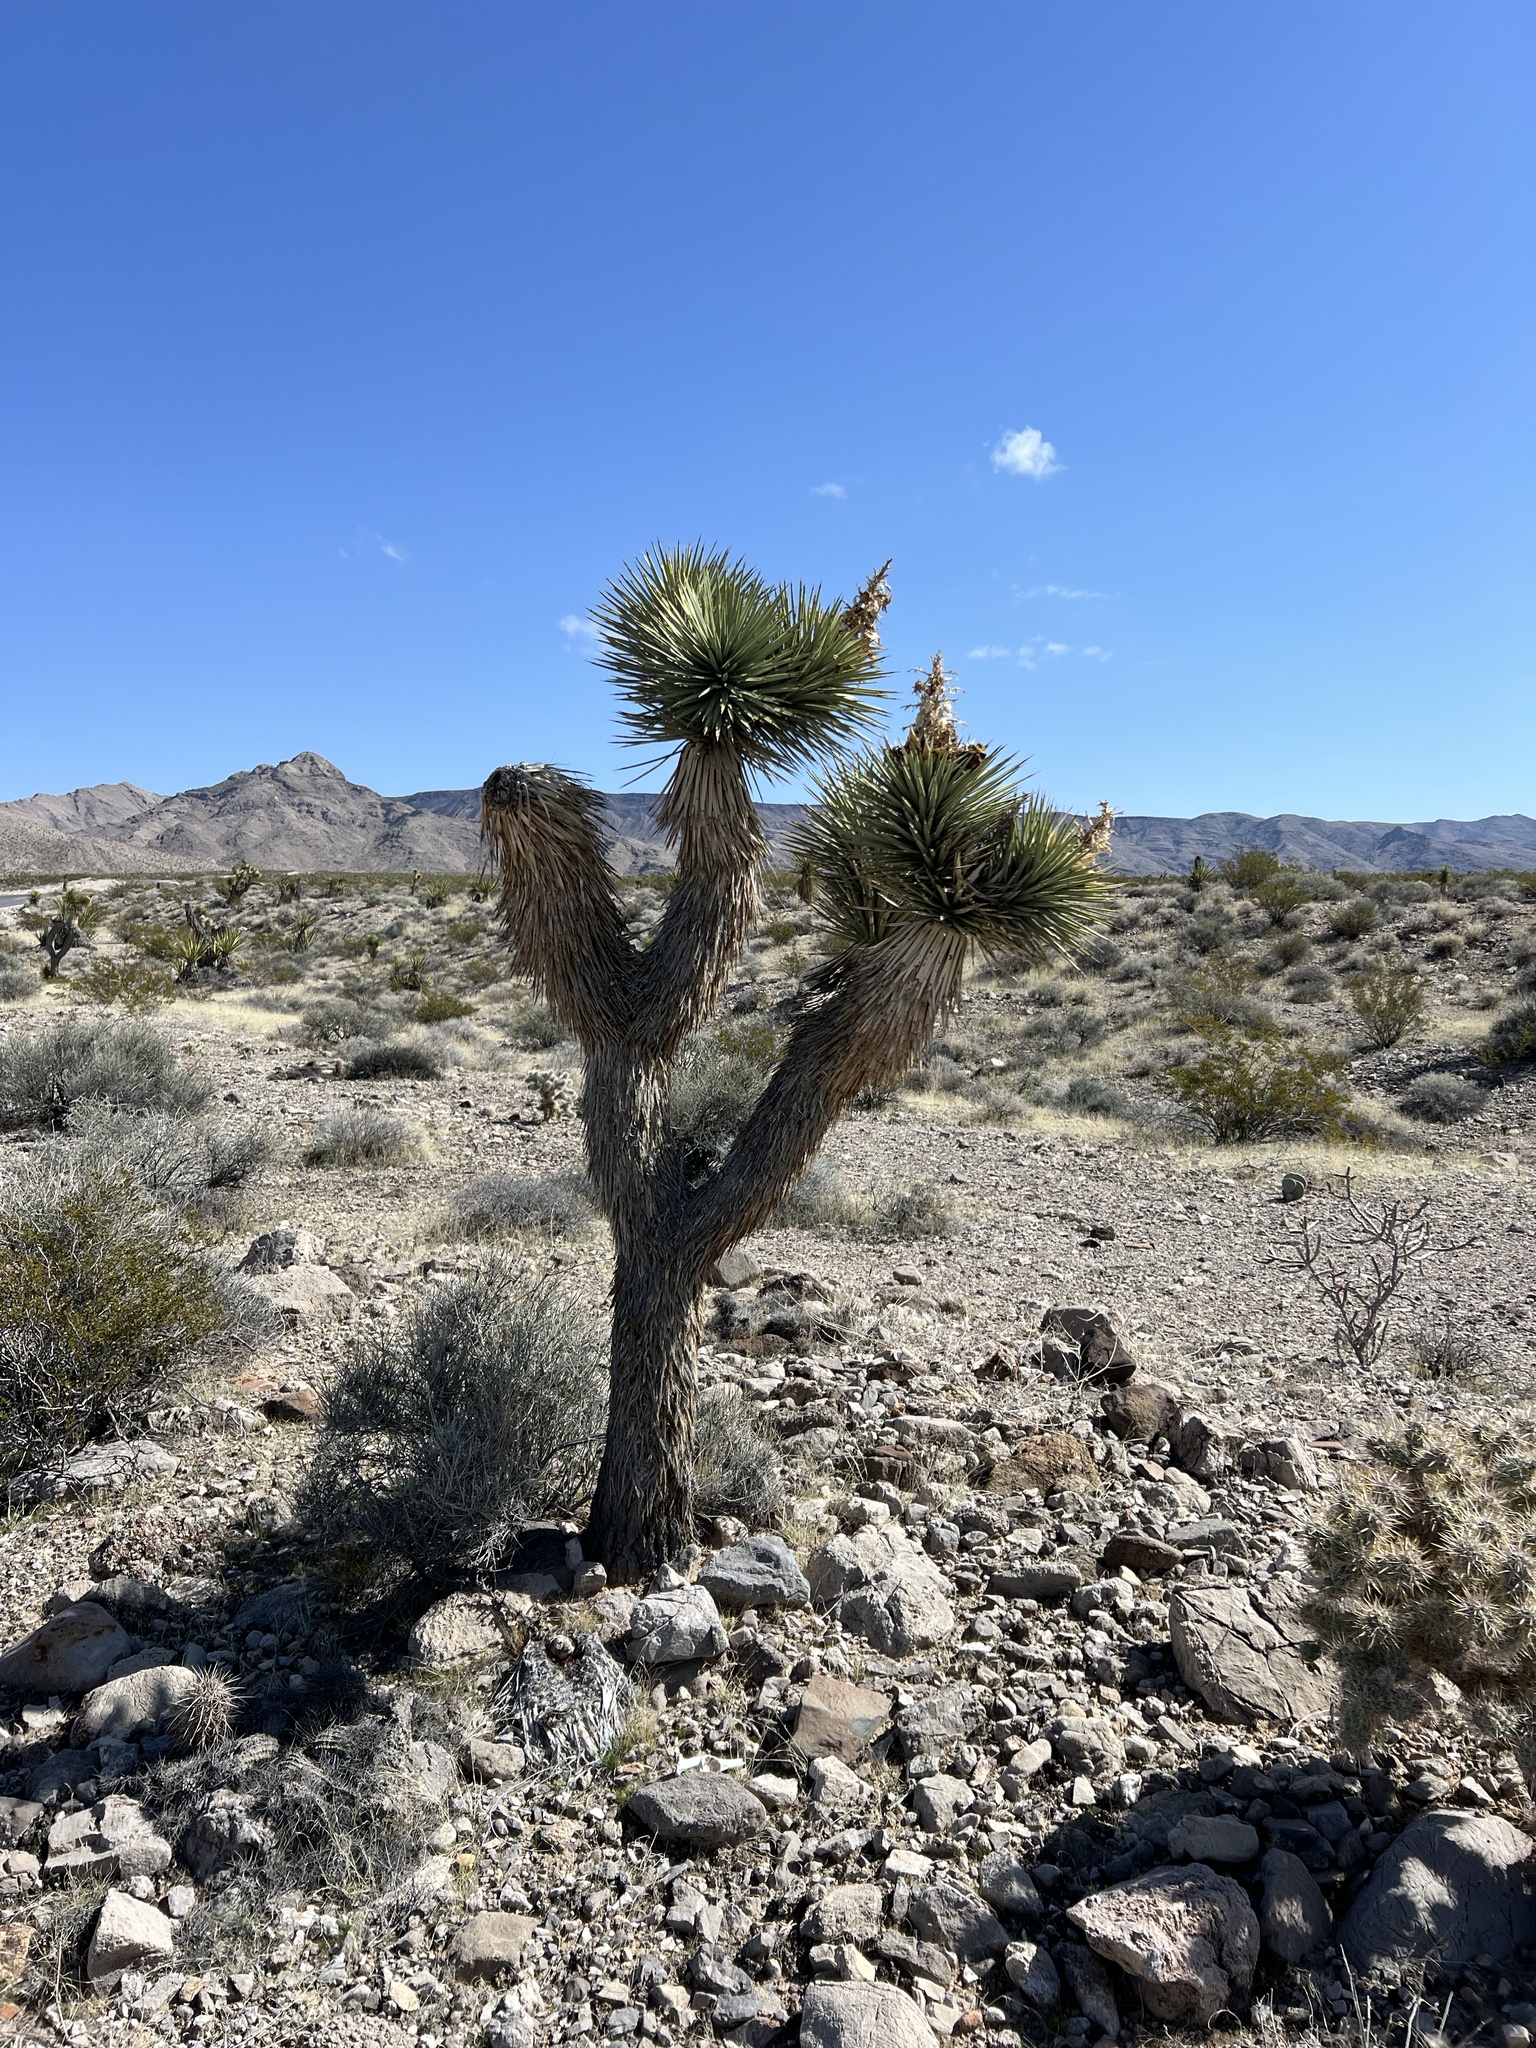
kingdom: Plantae
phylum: Tracheophyta
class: Liliopsida
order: Asparagales
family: Asparagaceae
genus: Yucca
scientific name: Yucca brevifolia
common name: Joshua tree
